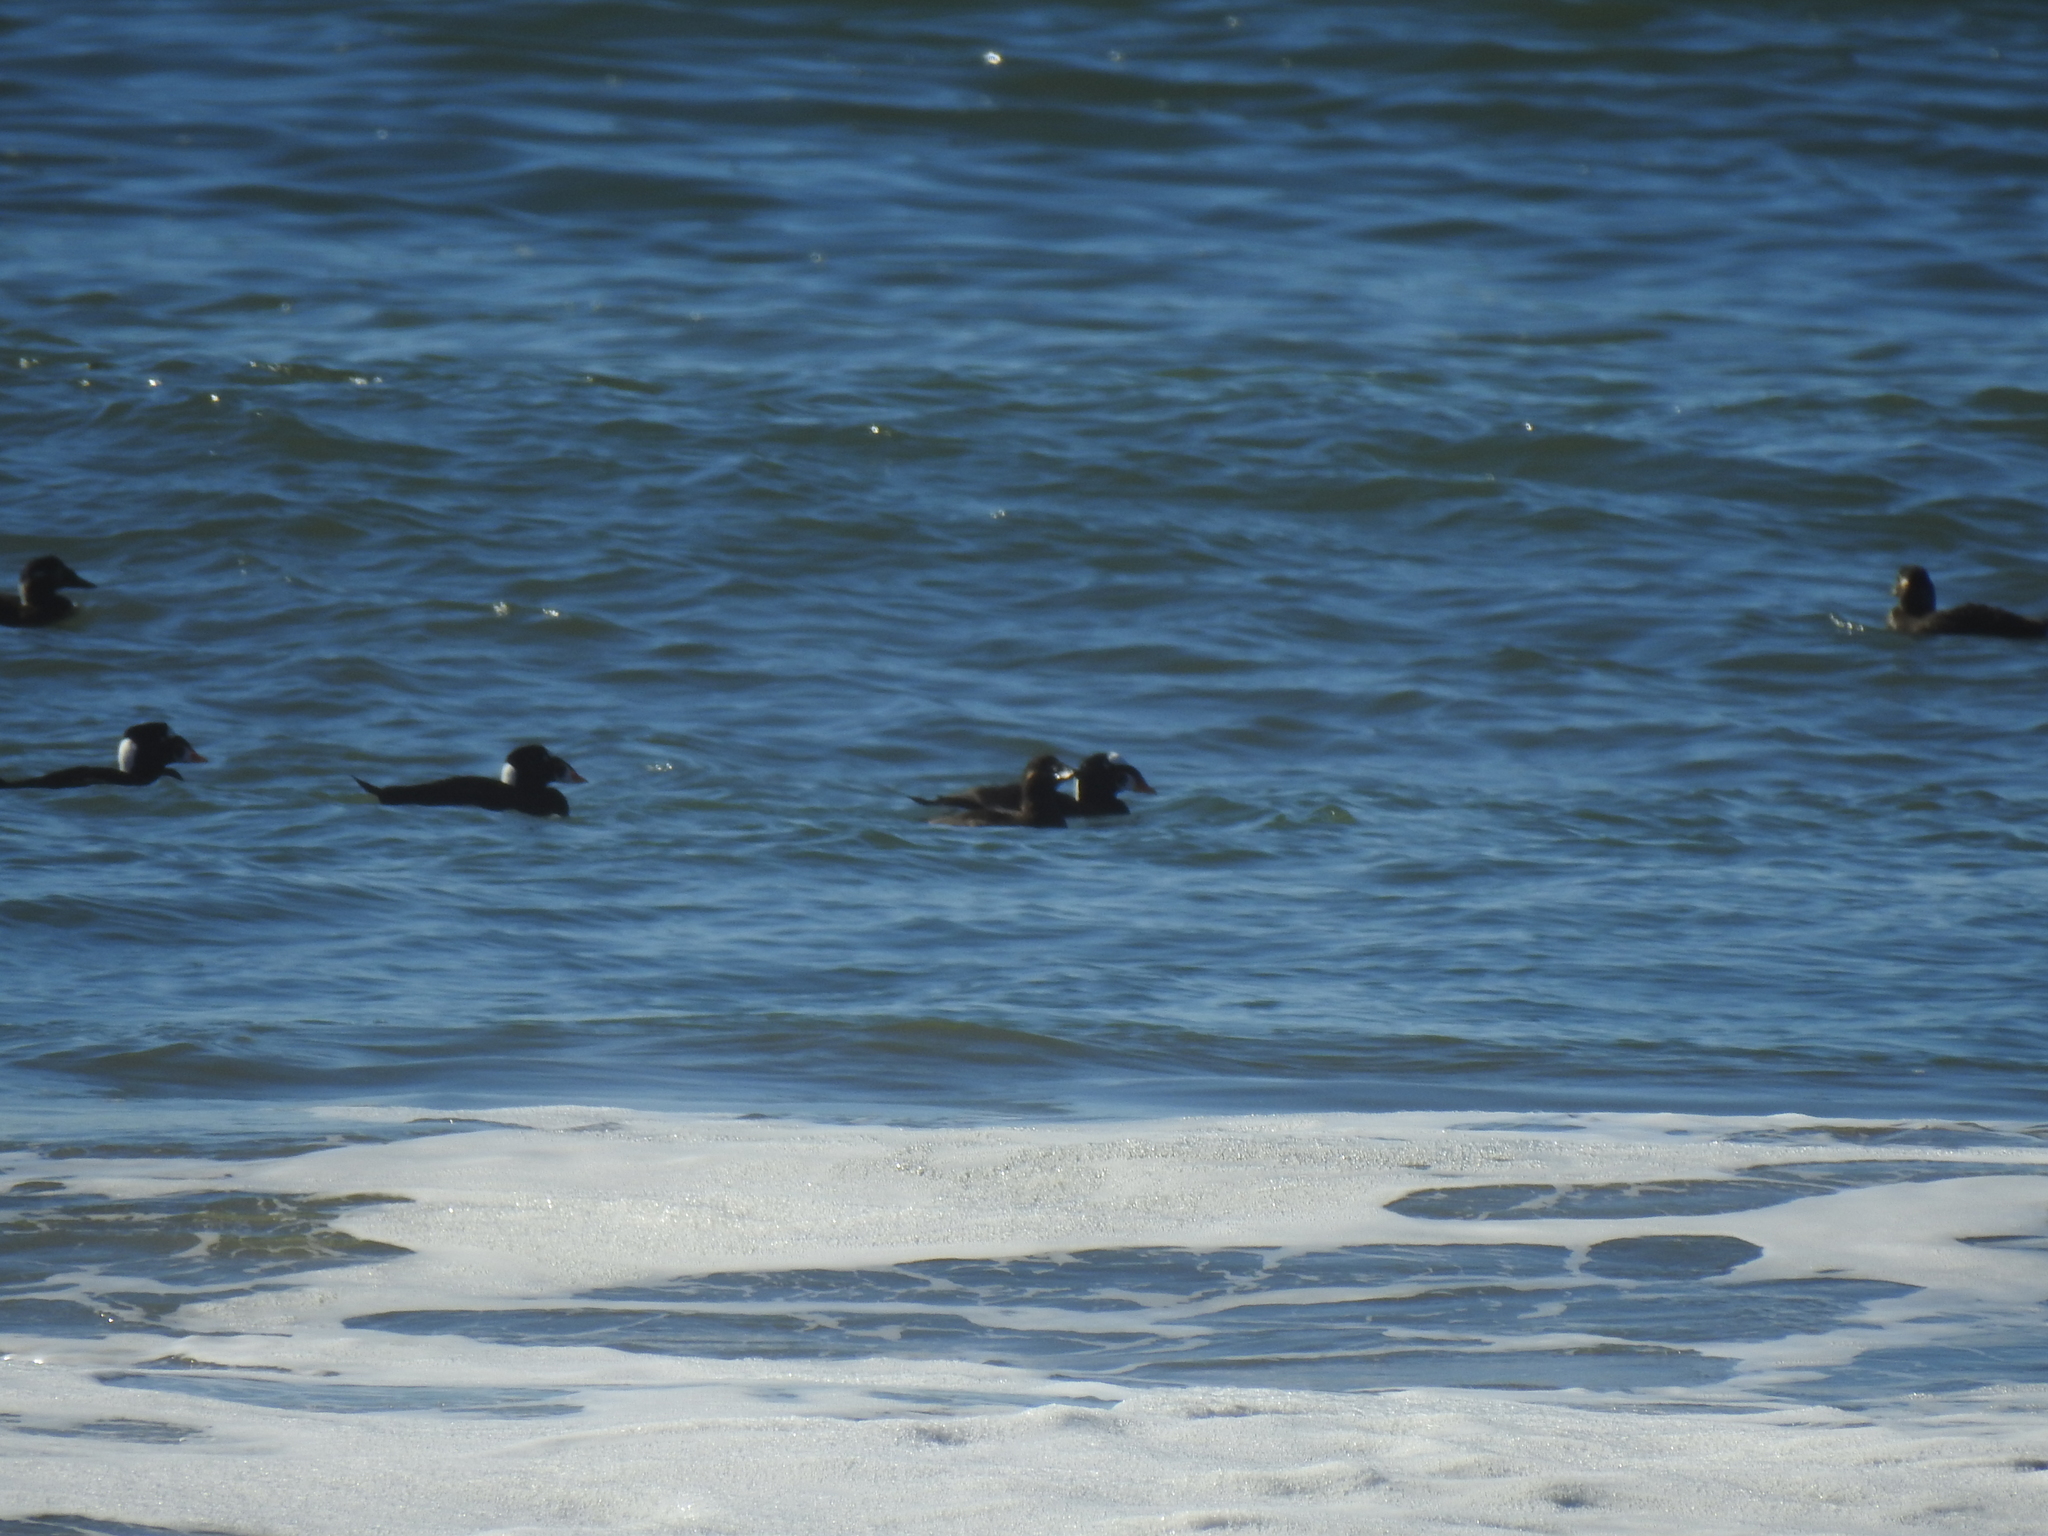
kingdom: Animalia
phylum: Chordata
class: Aves
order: Anseriformes
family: Anatidae
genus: Melanitta
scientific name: Melanitta perspicillata
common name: Surf scoter
